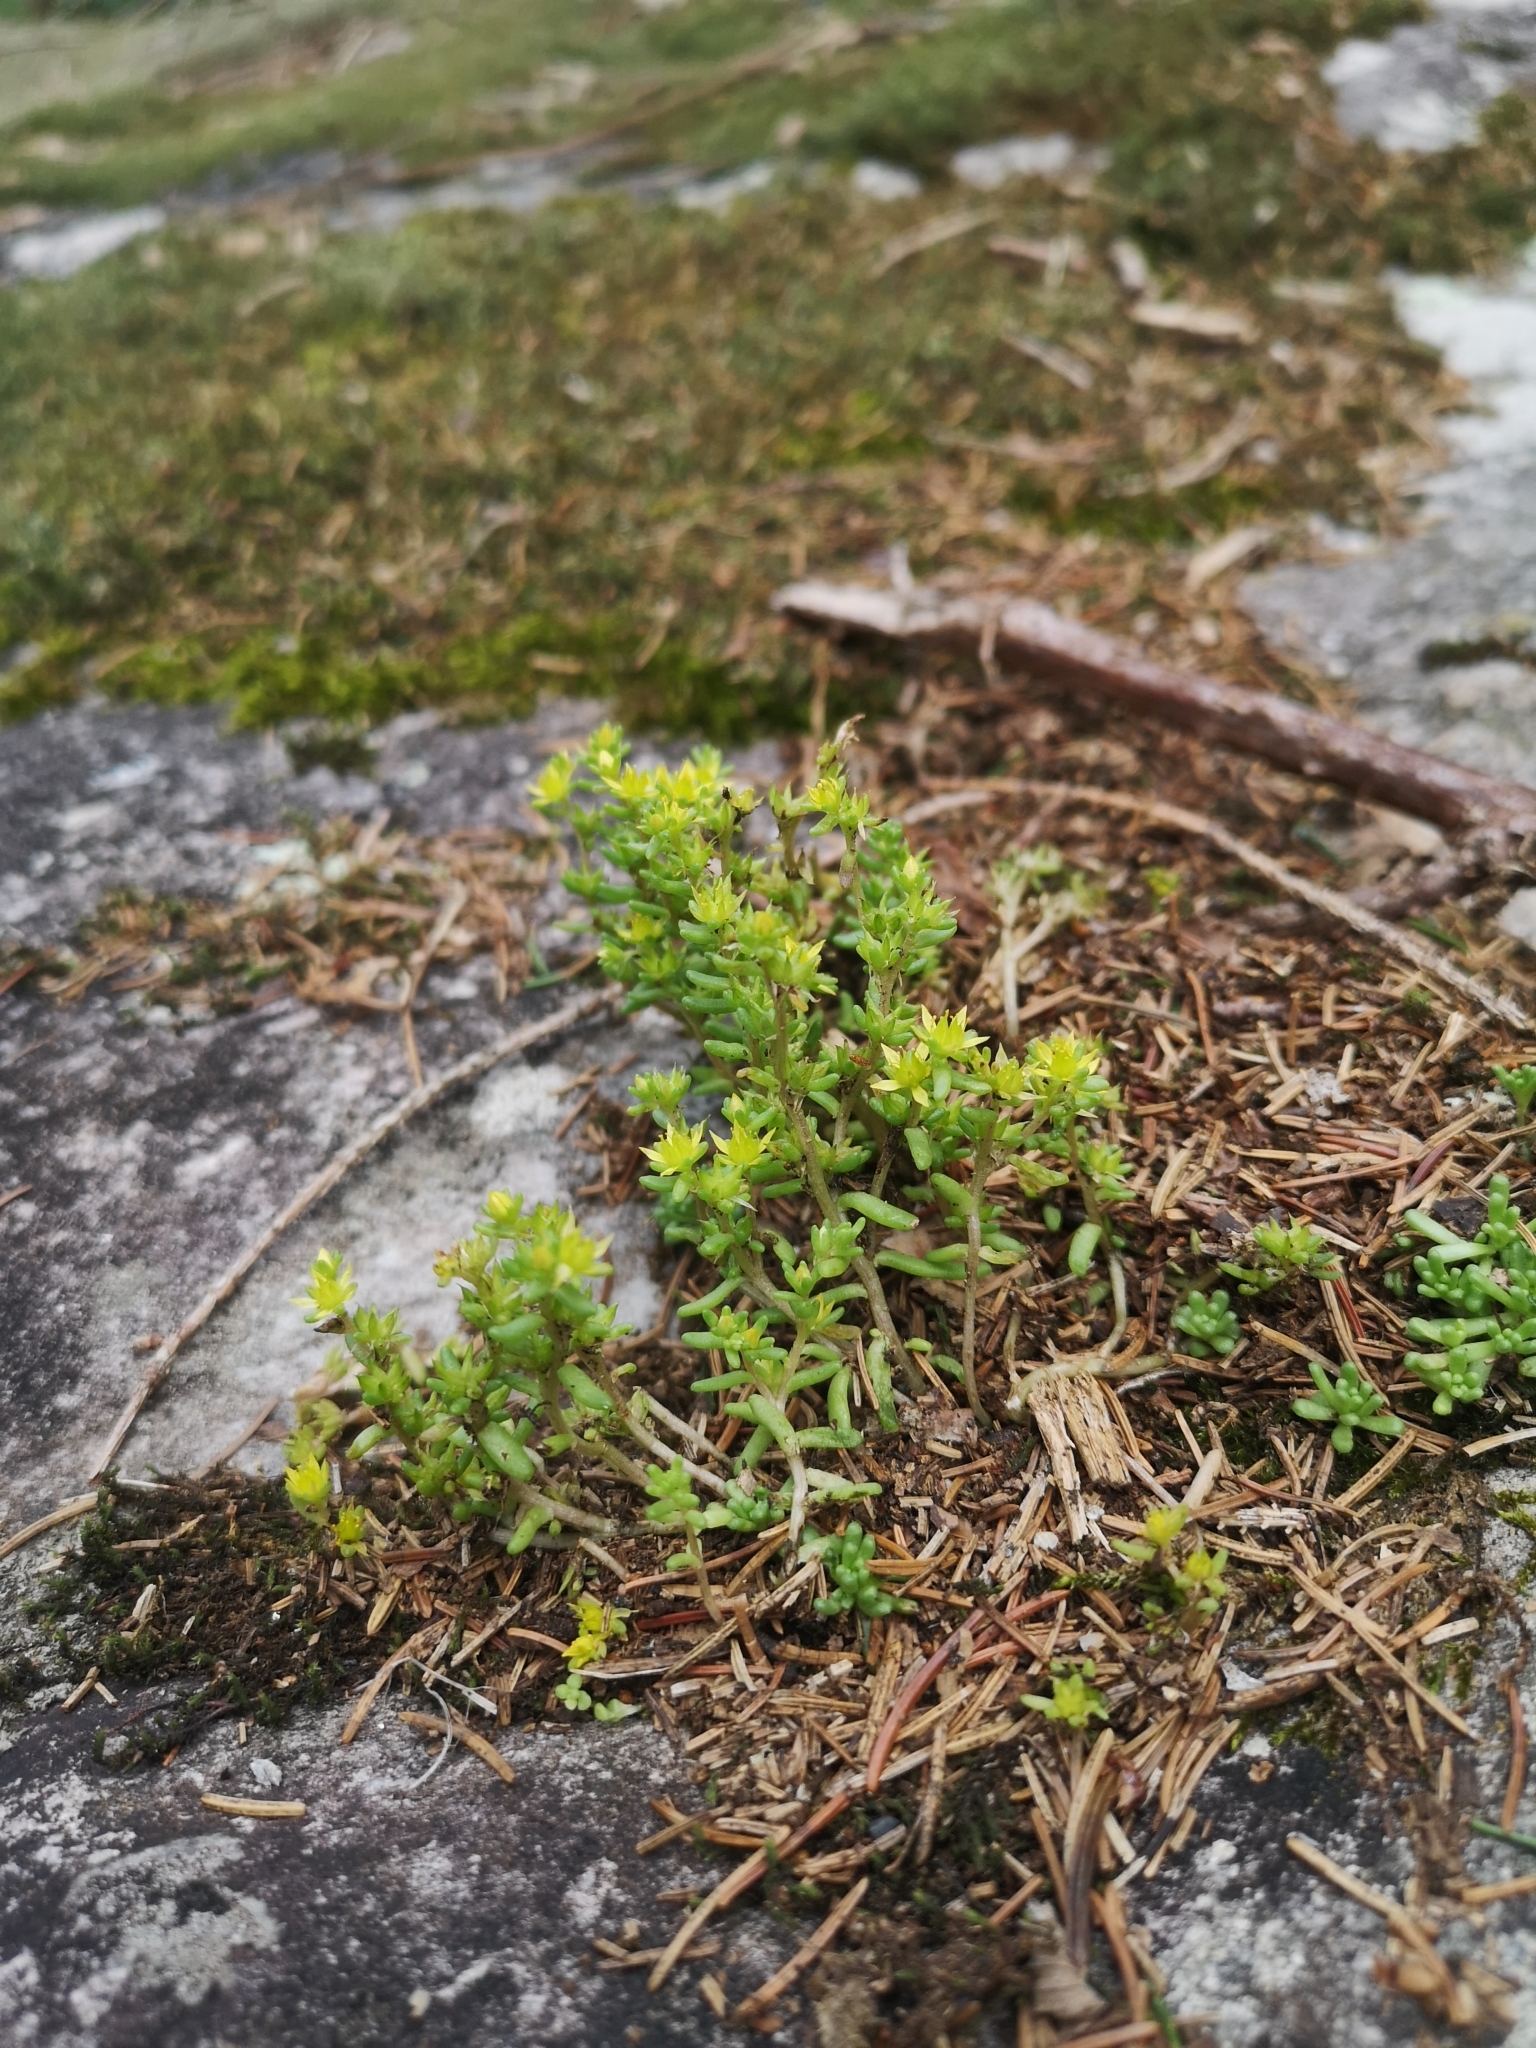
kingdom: Plantae
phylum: Tracheophyta
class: Magnoliopsida
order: Saxifragales
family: Crassulaceae
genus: Sedum
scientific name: Sedum annuum
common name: Annual stonecrop
